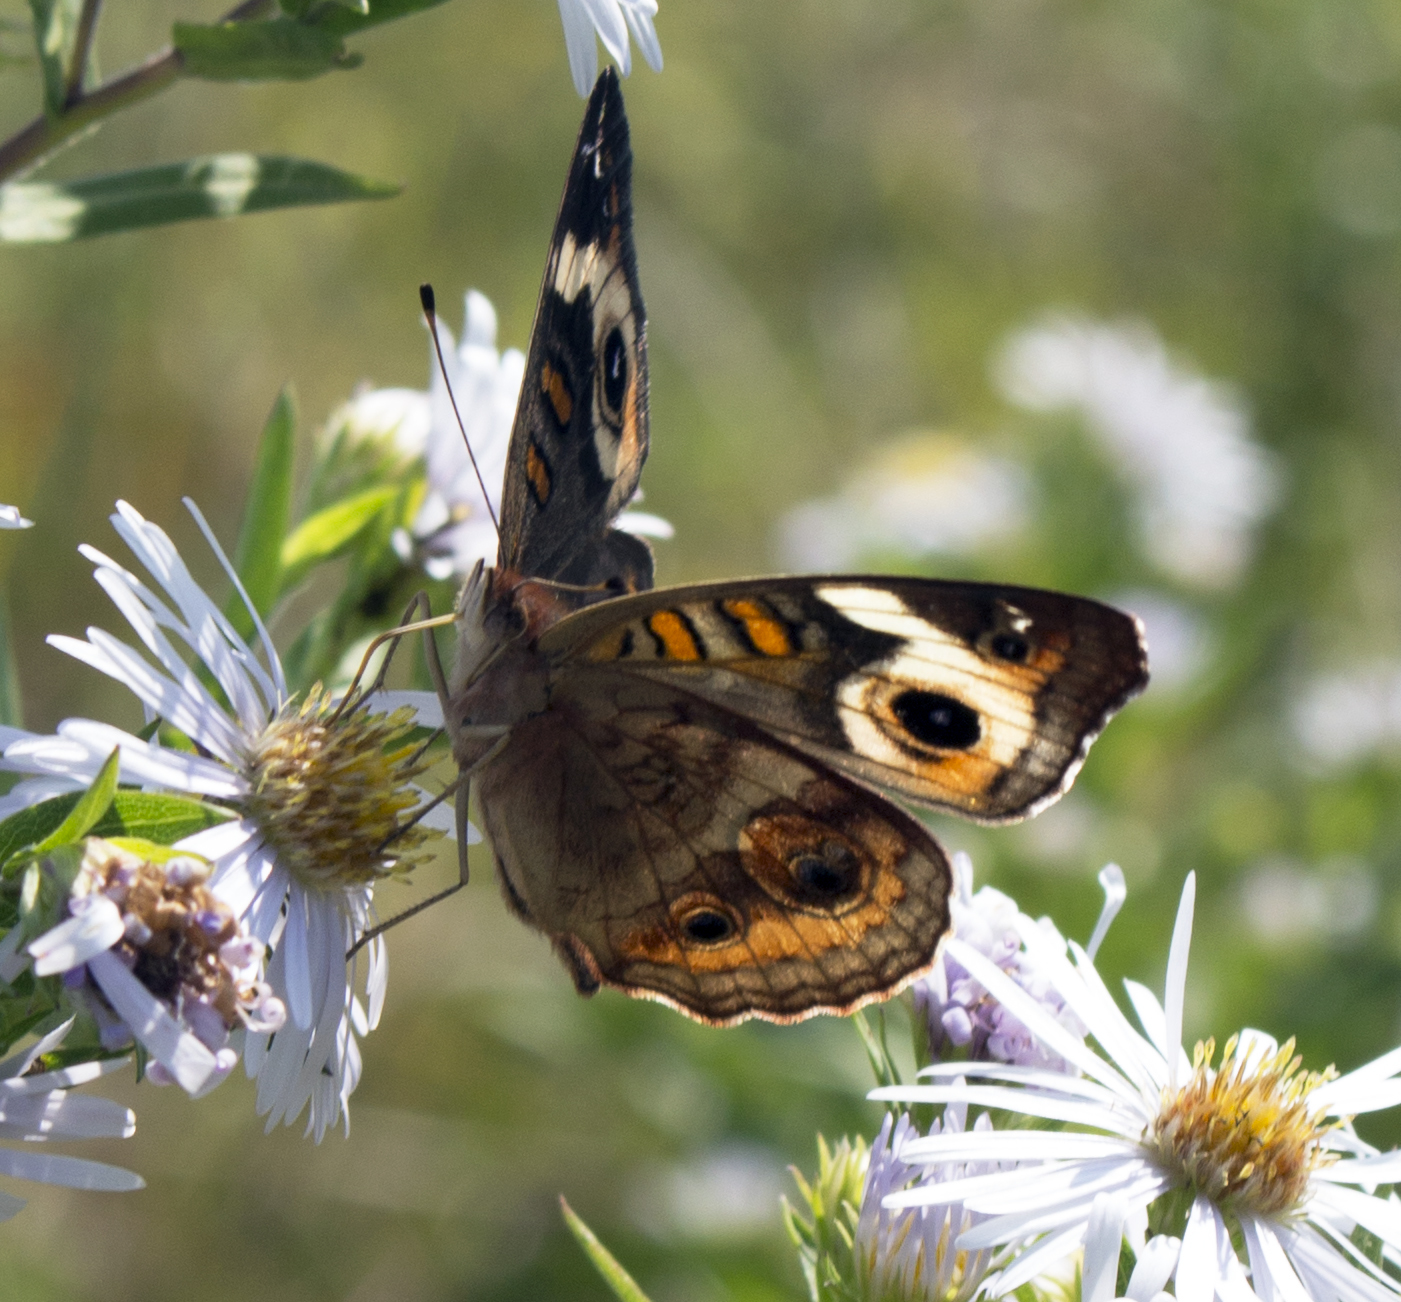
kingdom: Animalia
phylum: Arthropoda
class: Insecta
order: Lepidoptera
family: Nymphalidae
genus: Junonia
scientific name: Junonia coenia
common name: Common buckeye
